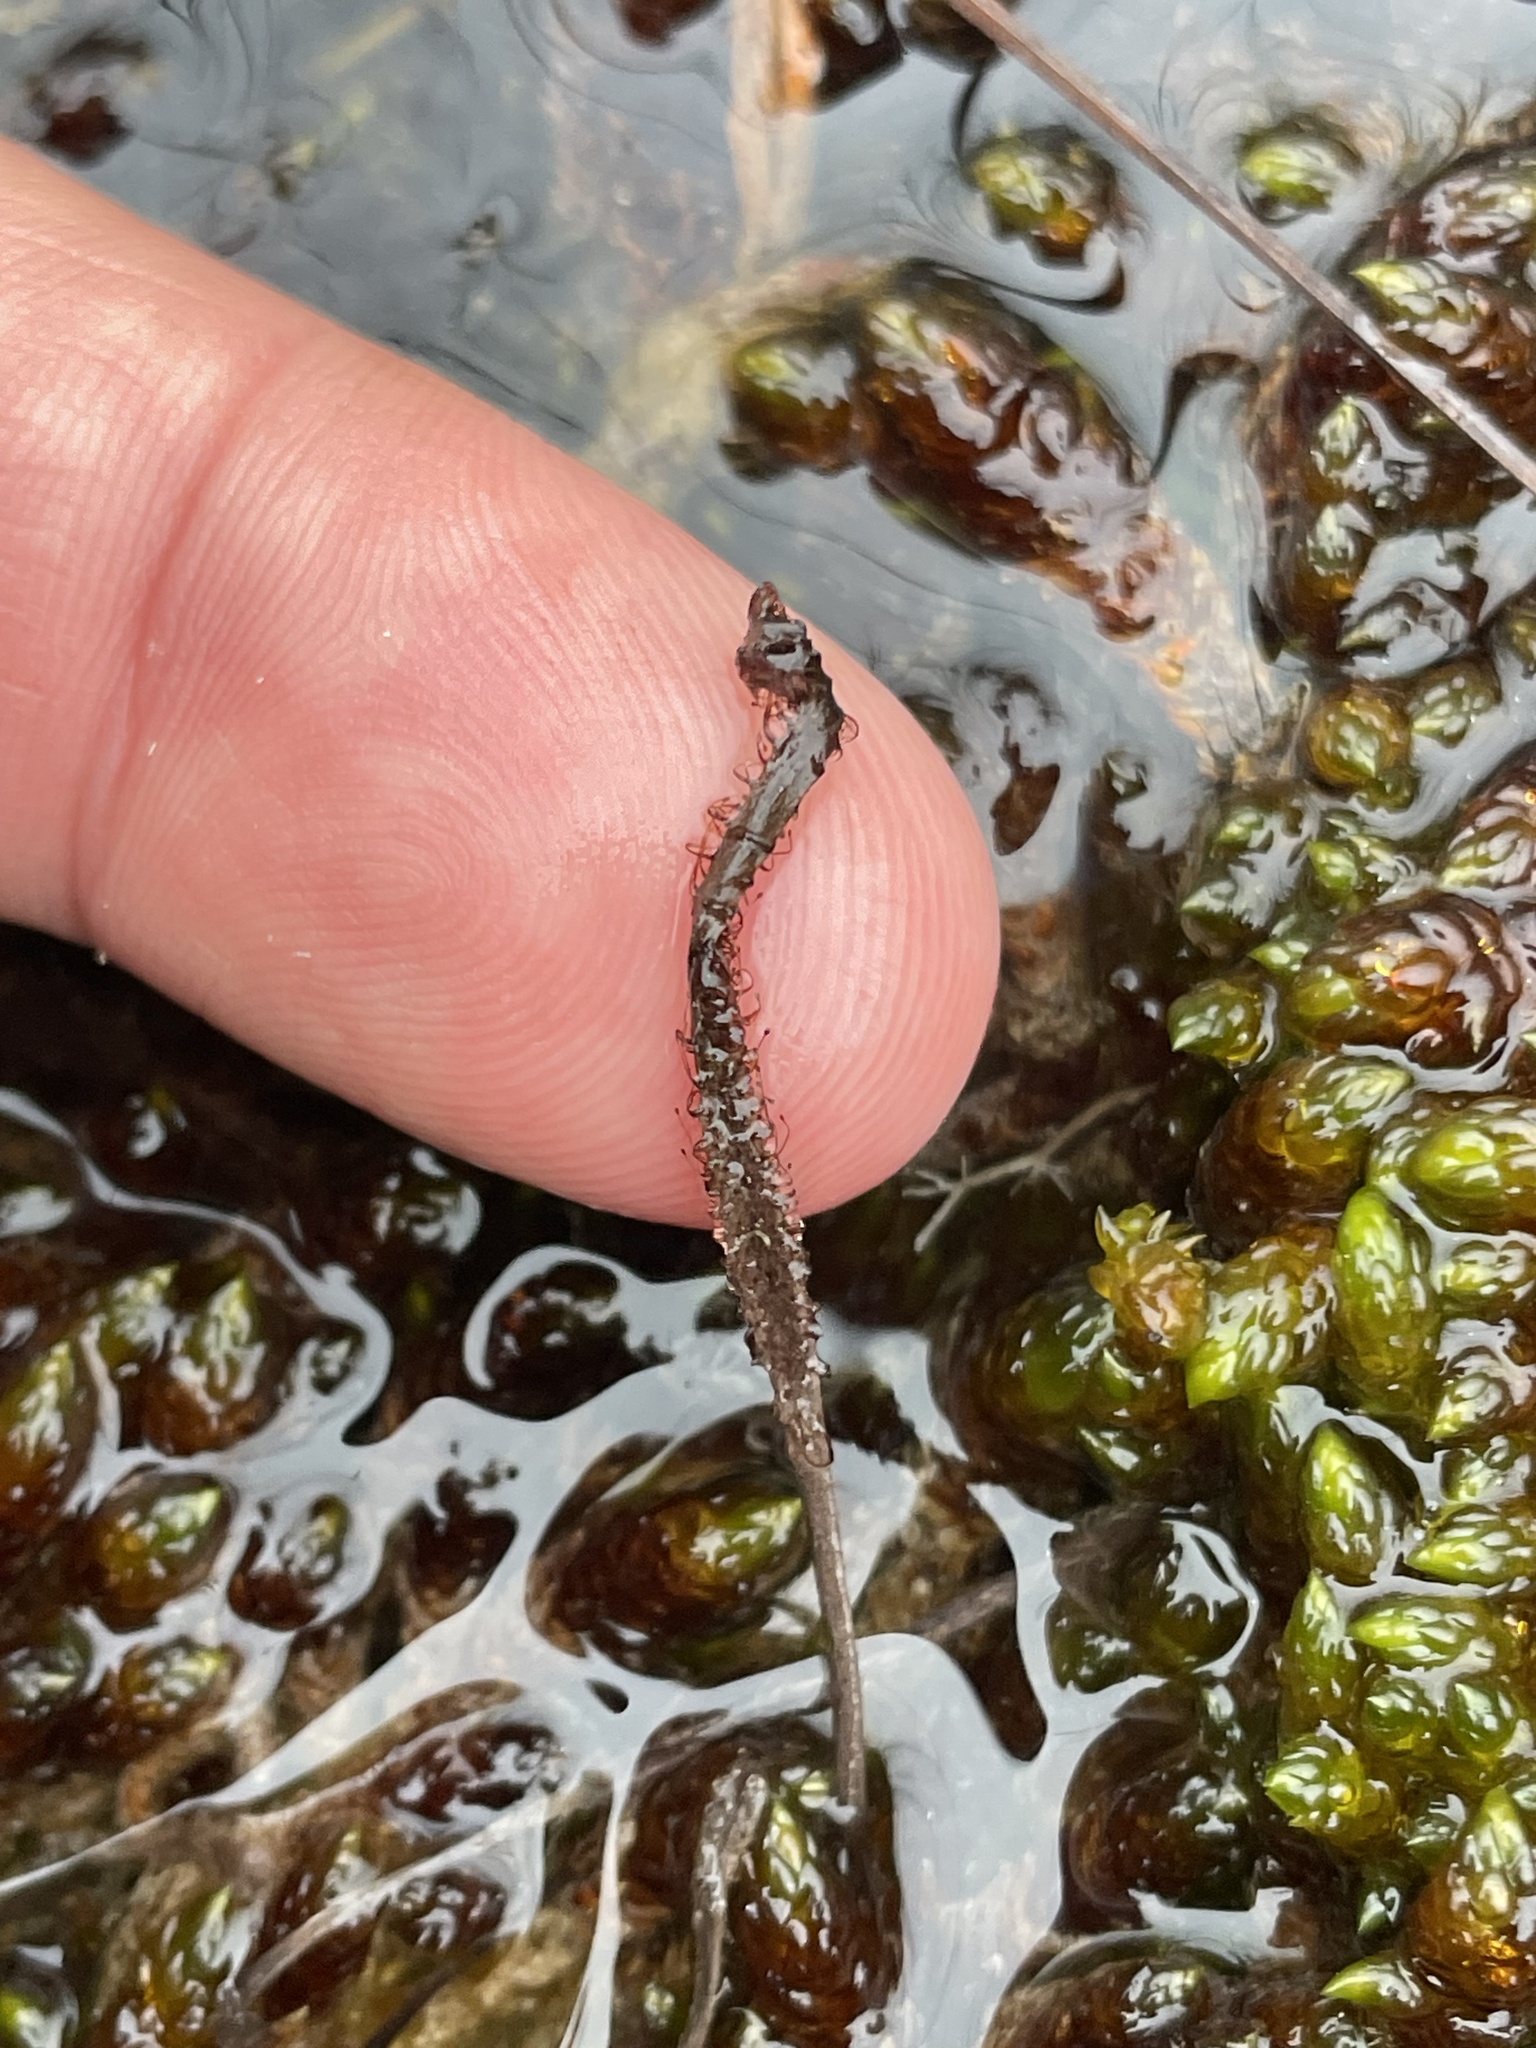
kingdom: Plantae
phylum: Tracheophyta
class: Magnoliopsida
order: Caryophyllales
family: Droseraceae
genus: Drosera
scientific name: Drosera linearis
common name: Linear-leaved sundew
